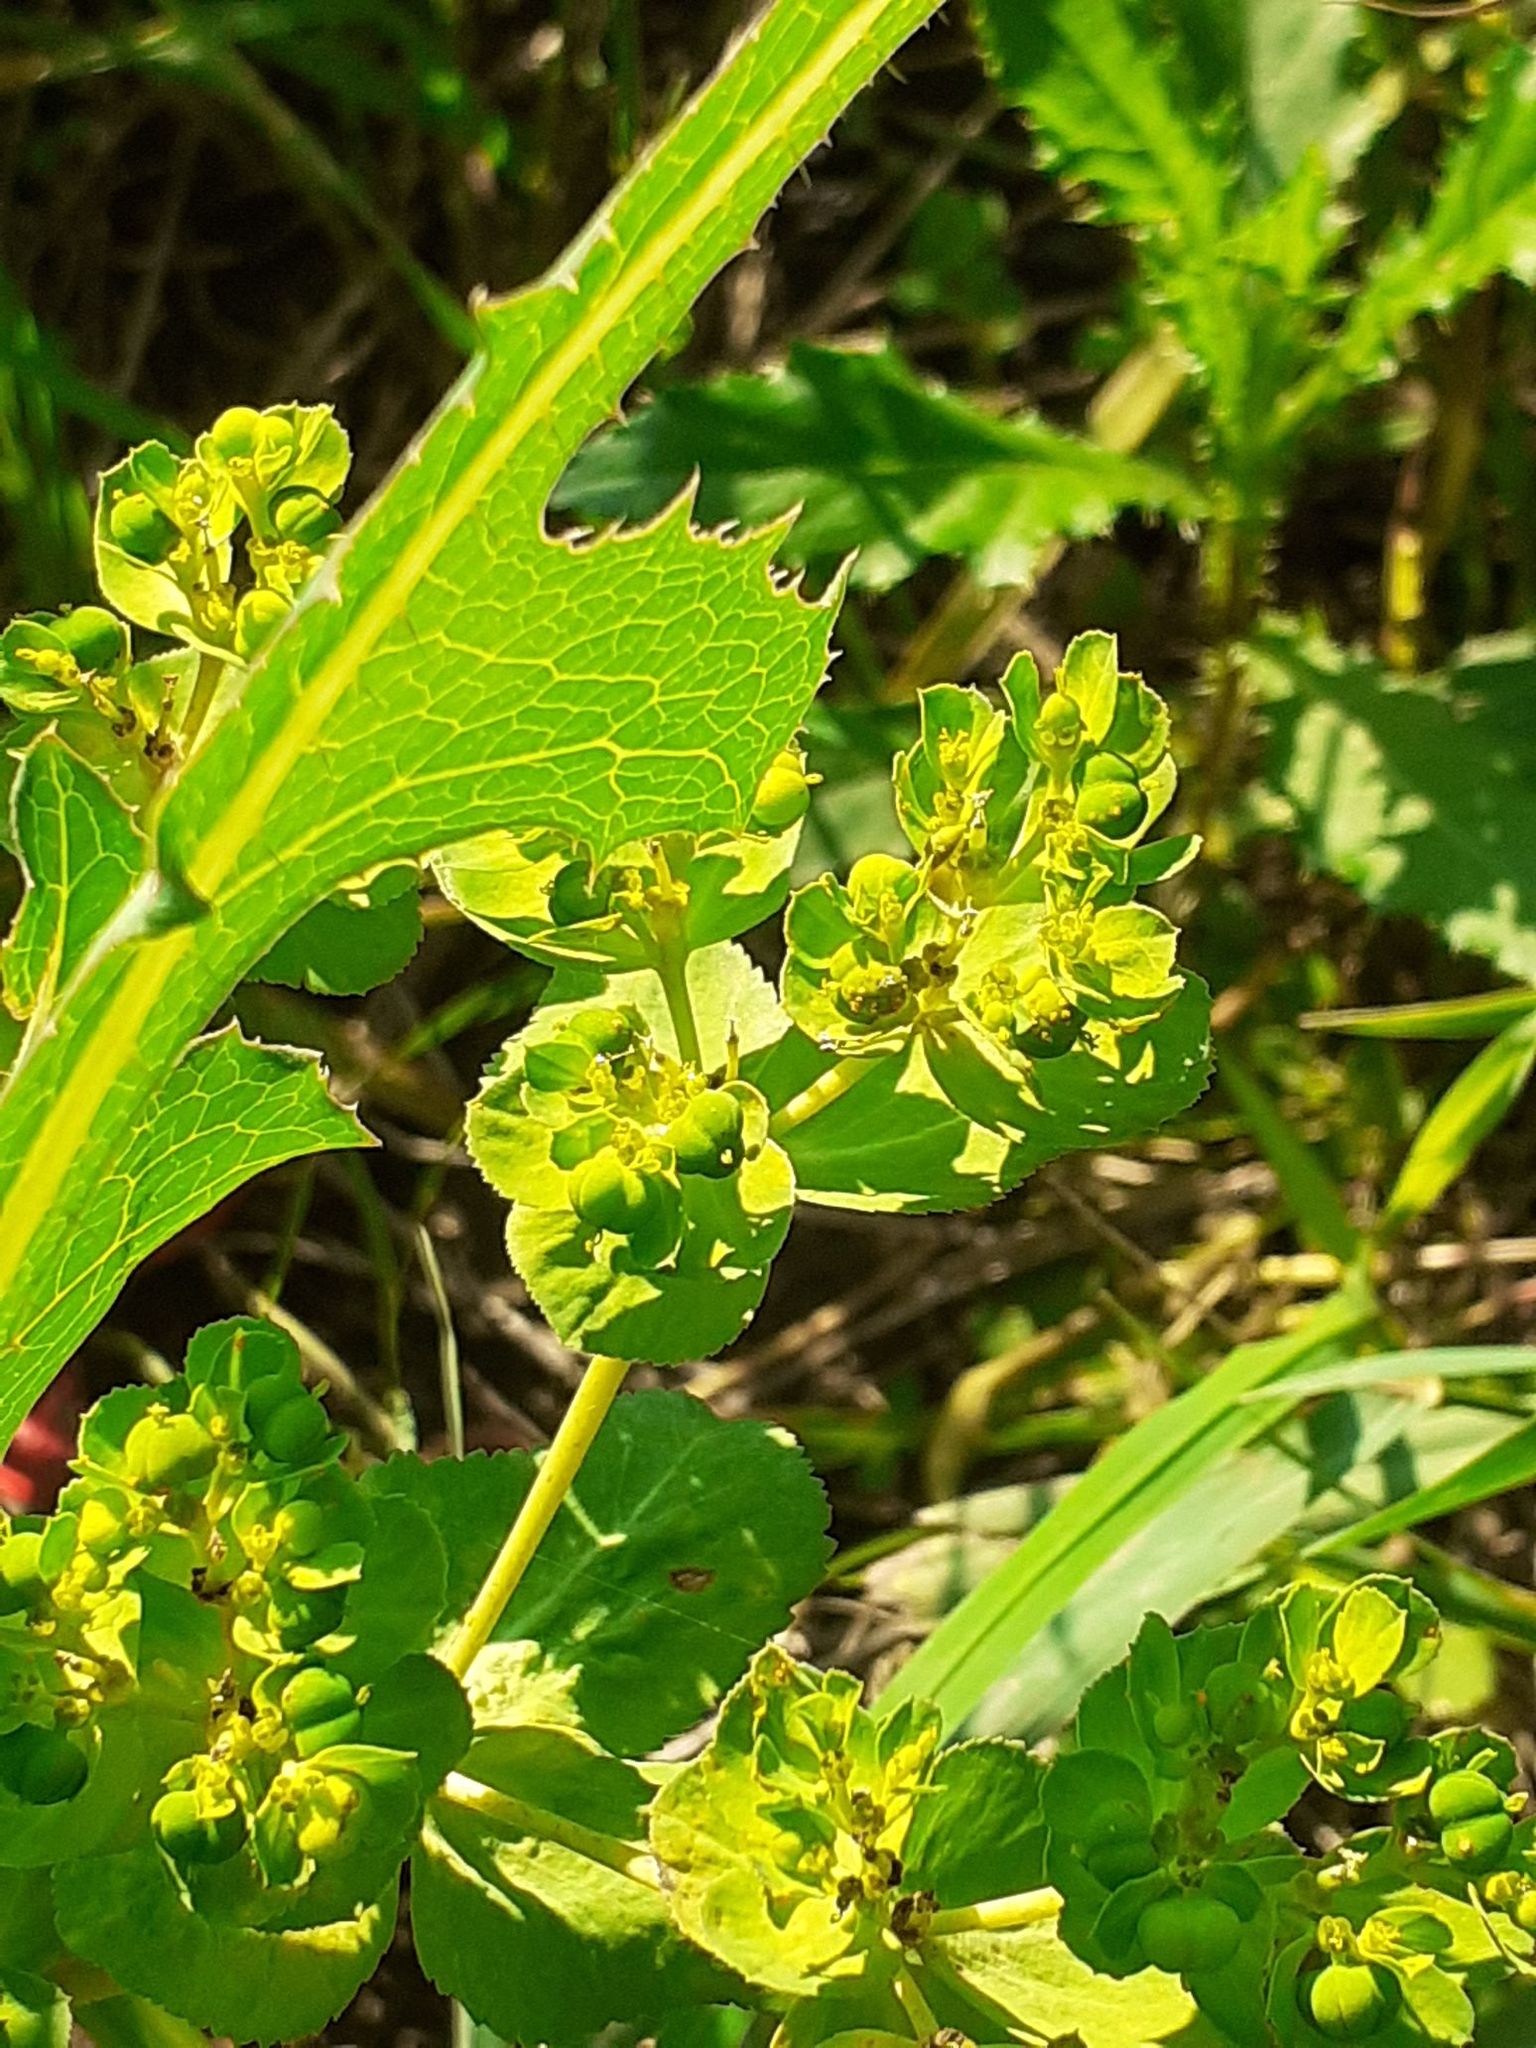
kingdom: Plantae
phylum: Tracheophyta
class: Magnoliopsida
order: Malpighiales
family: Euphorbiaceae
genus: Euphorbia
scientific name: Euphorbia helioscopia
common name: Sun spurge
